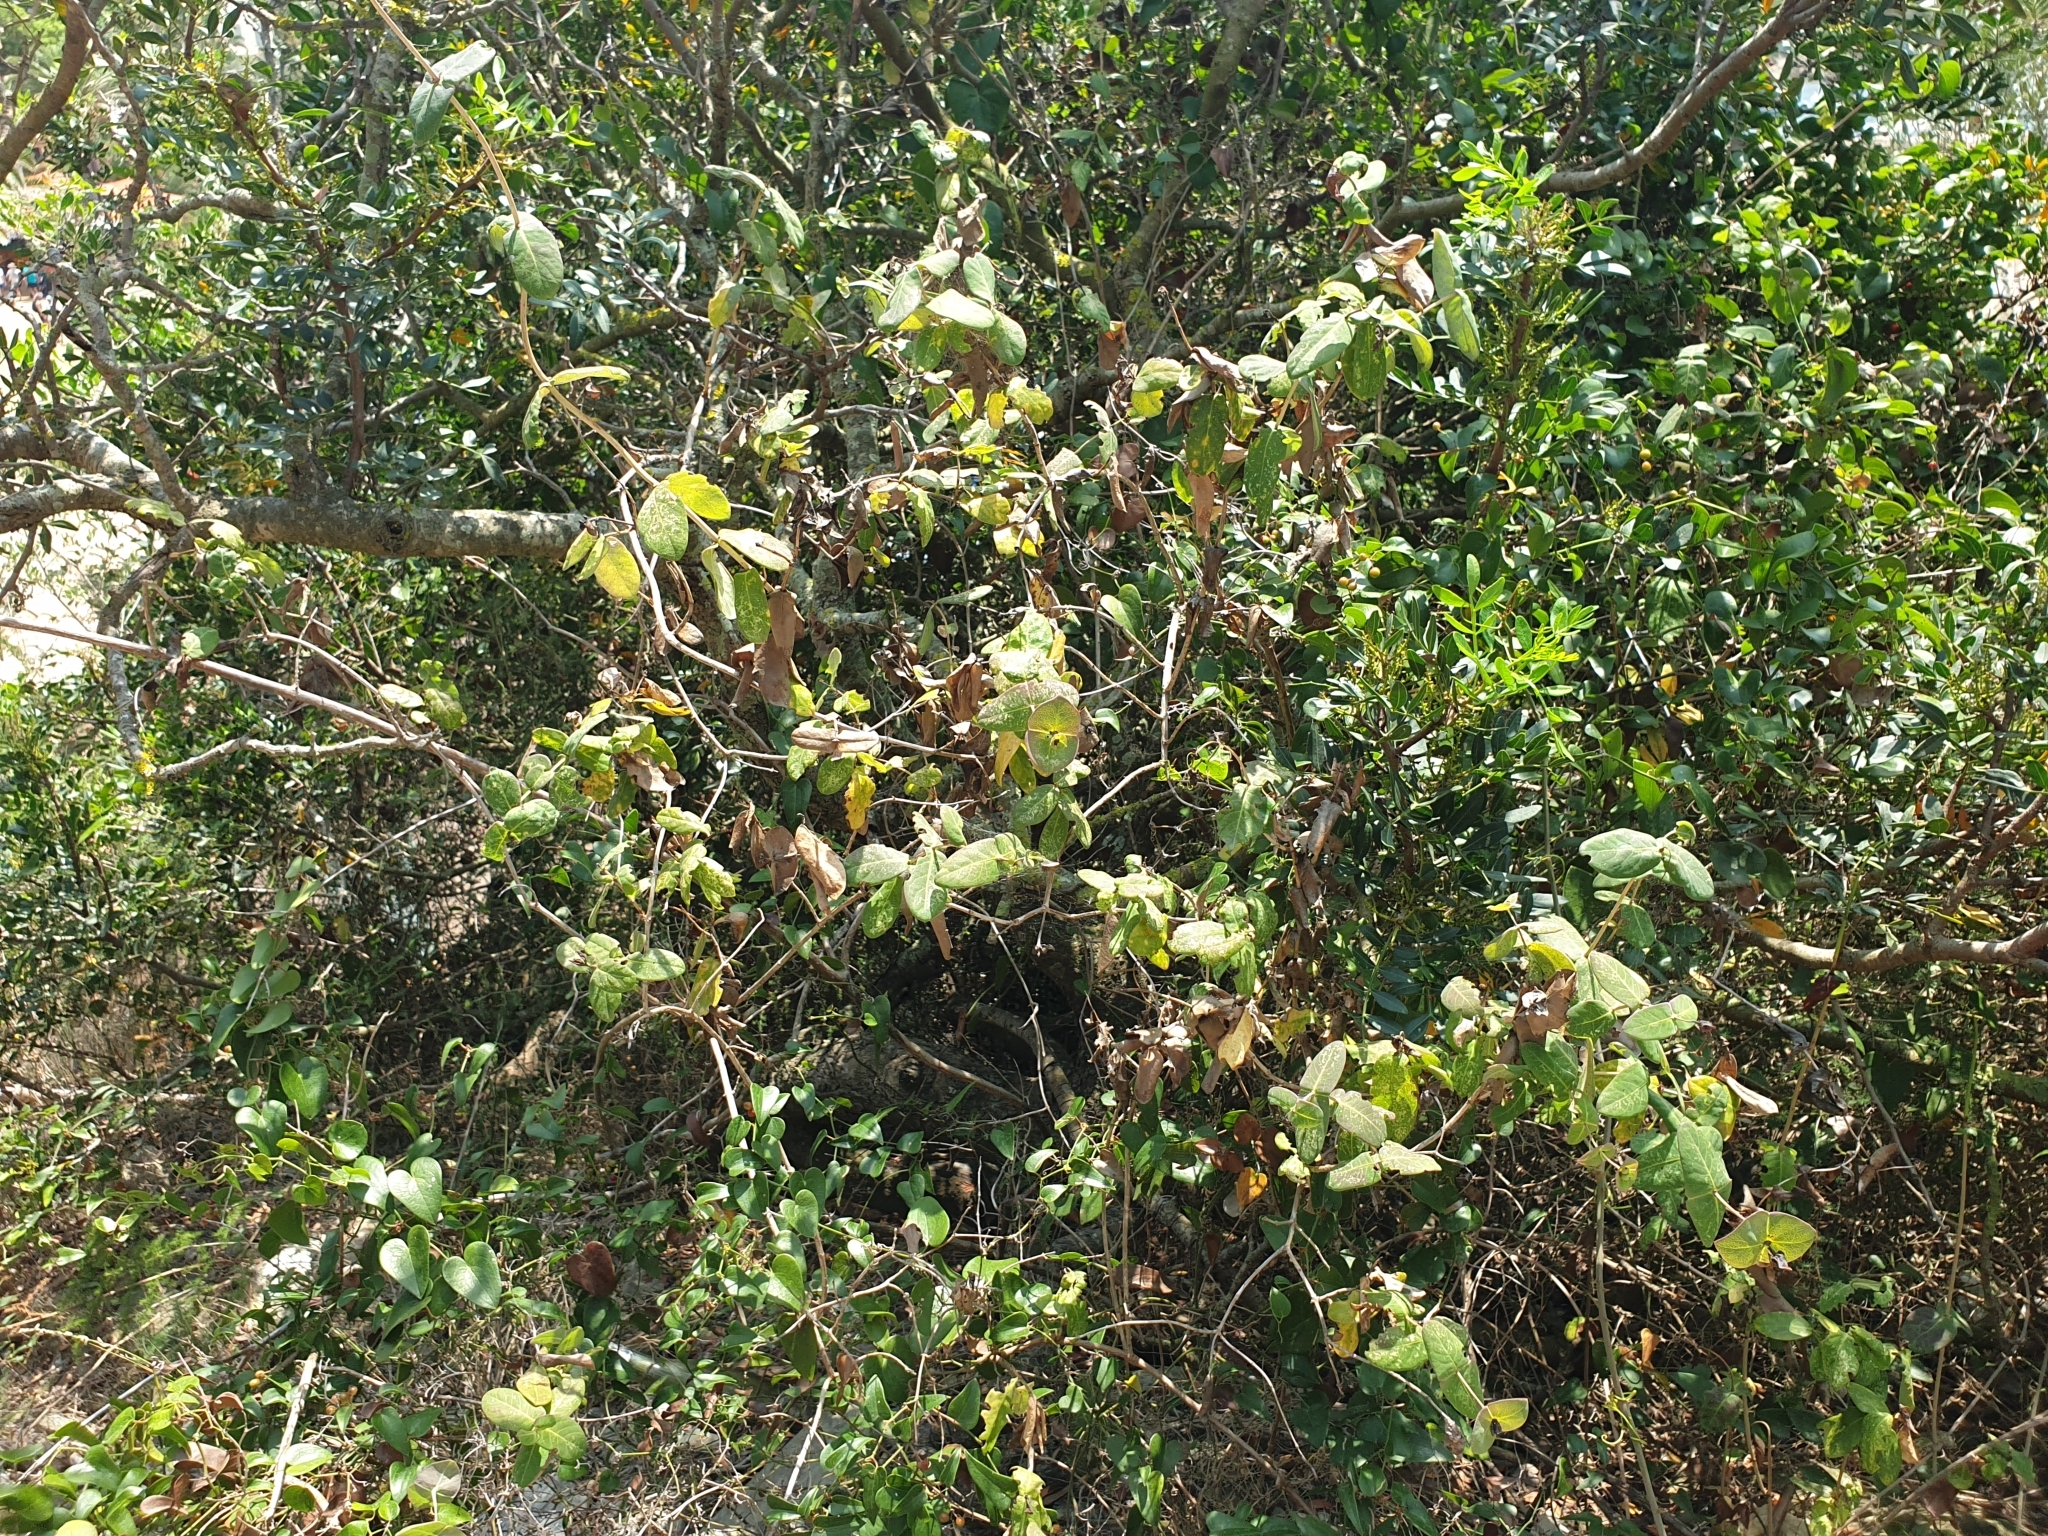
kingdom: Plantae
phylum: Tracheophyta
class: Magnoliopsida
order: Dipsacales
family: Caprifoliaceae
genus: Lonicera
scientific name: Lonicera implexa
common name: Minorca honeysuckle
